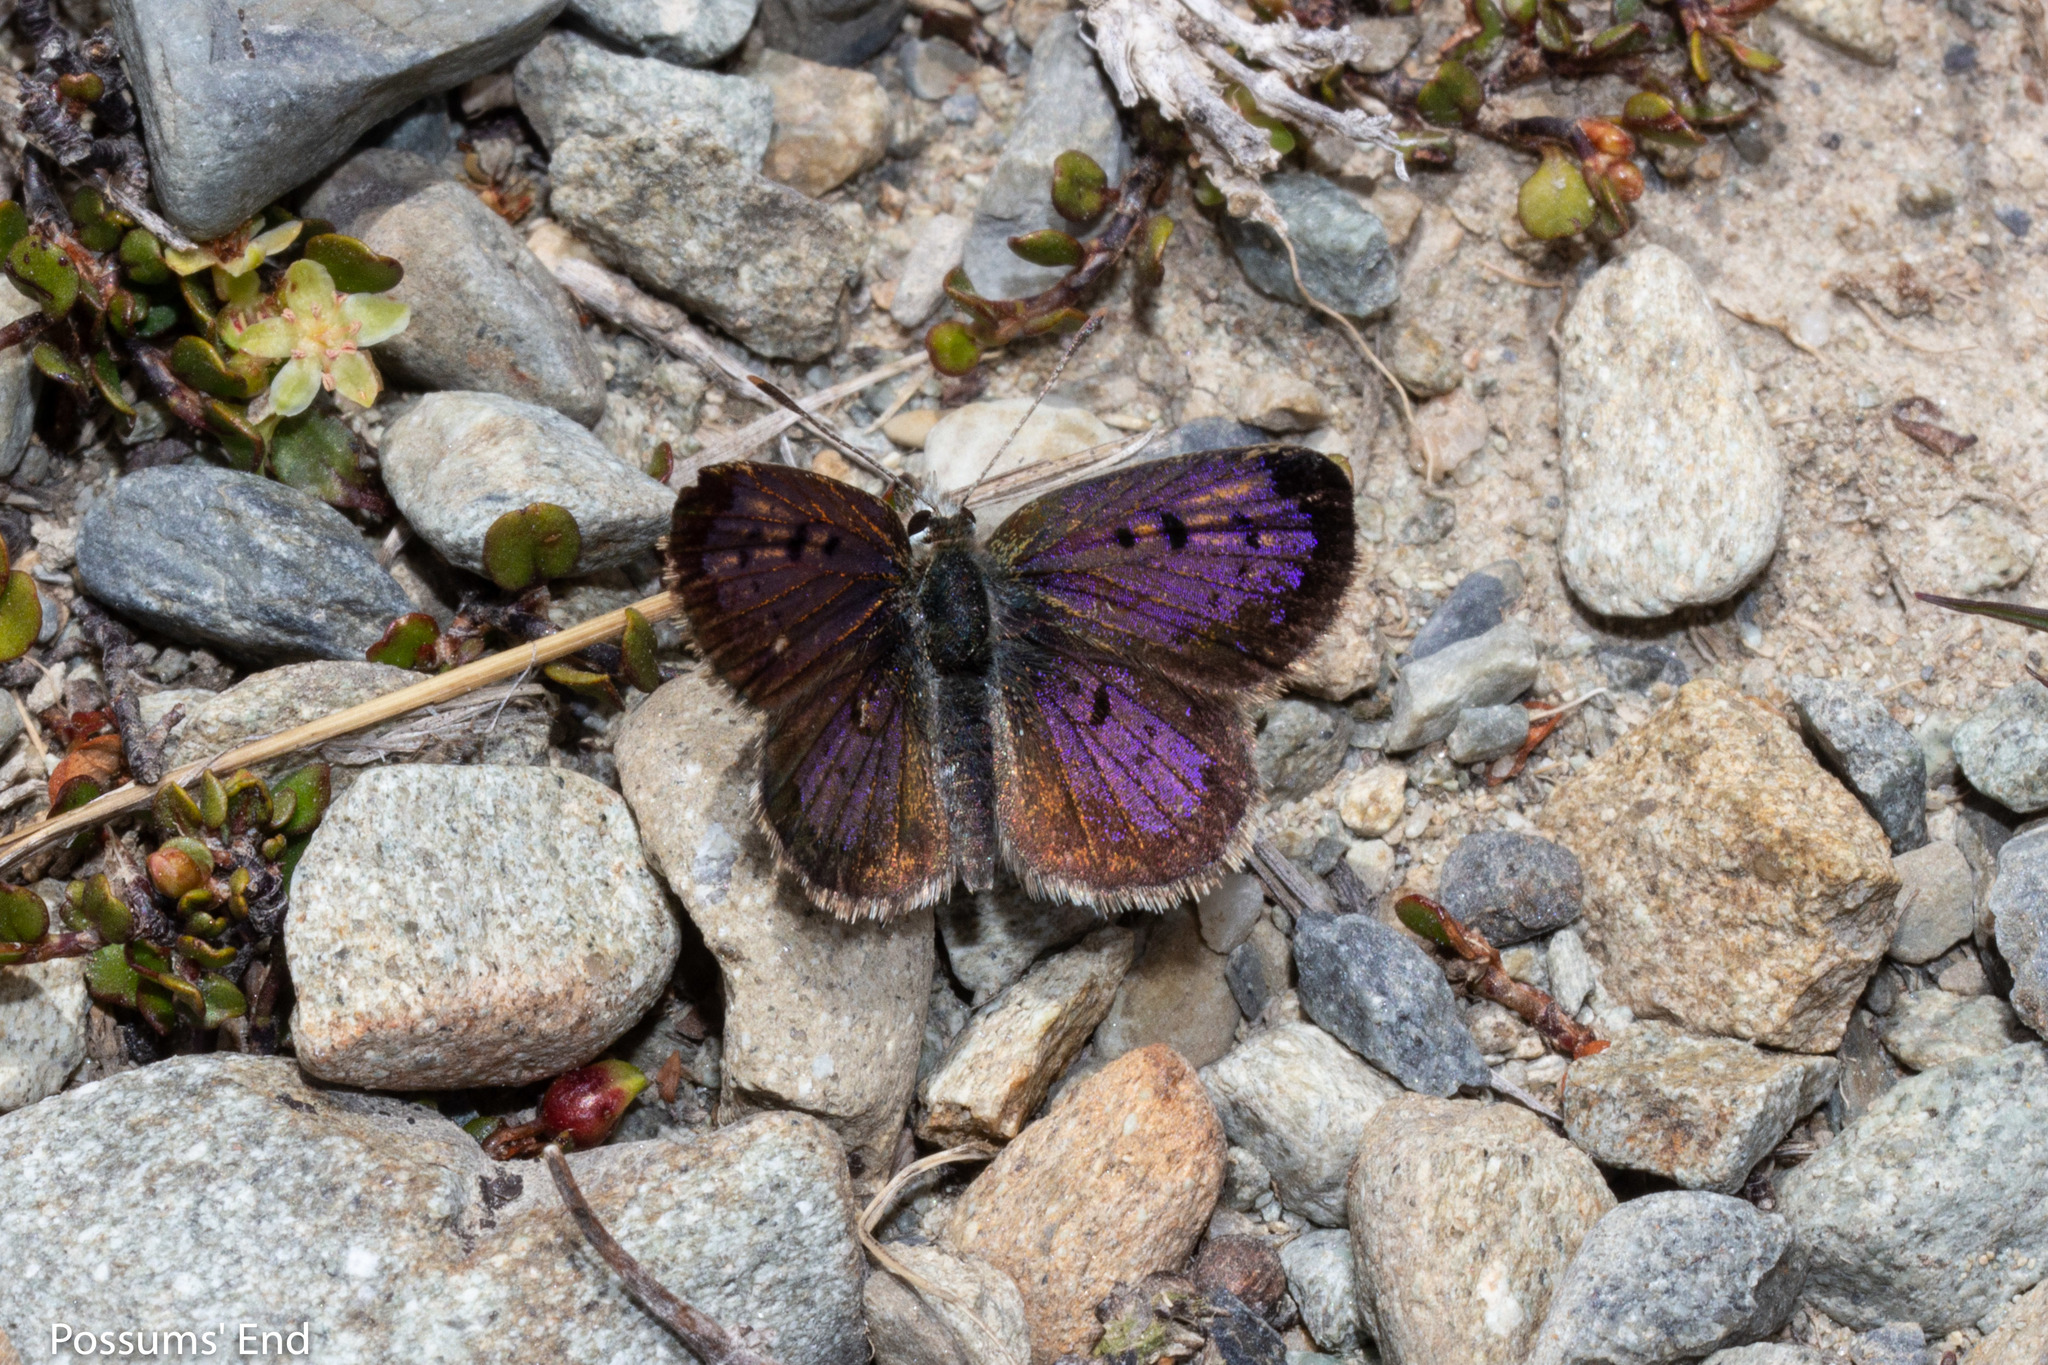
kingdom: Animalia
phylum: Arthropoda
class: Insecta
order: Lepidoptera
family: Lycaenidae
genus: Lycaena
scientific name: Lycaena boldenarum
